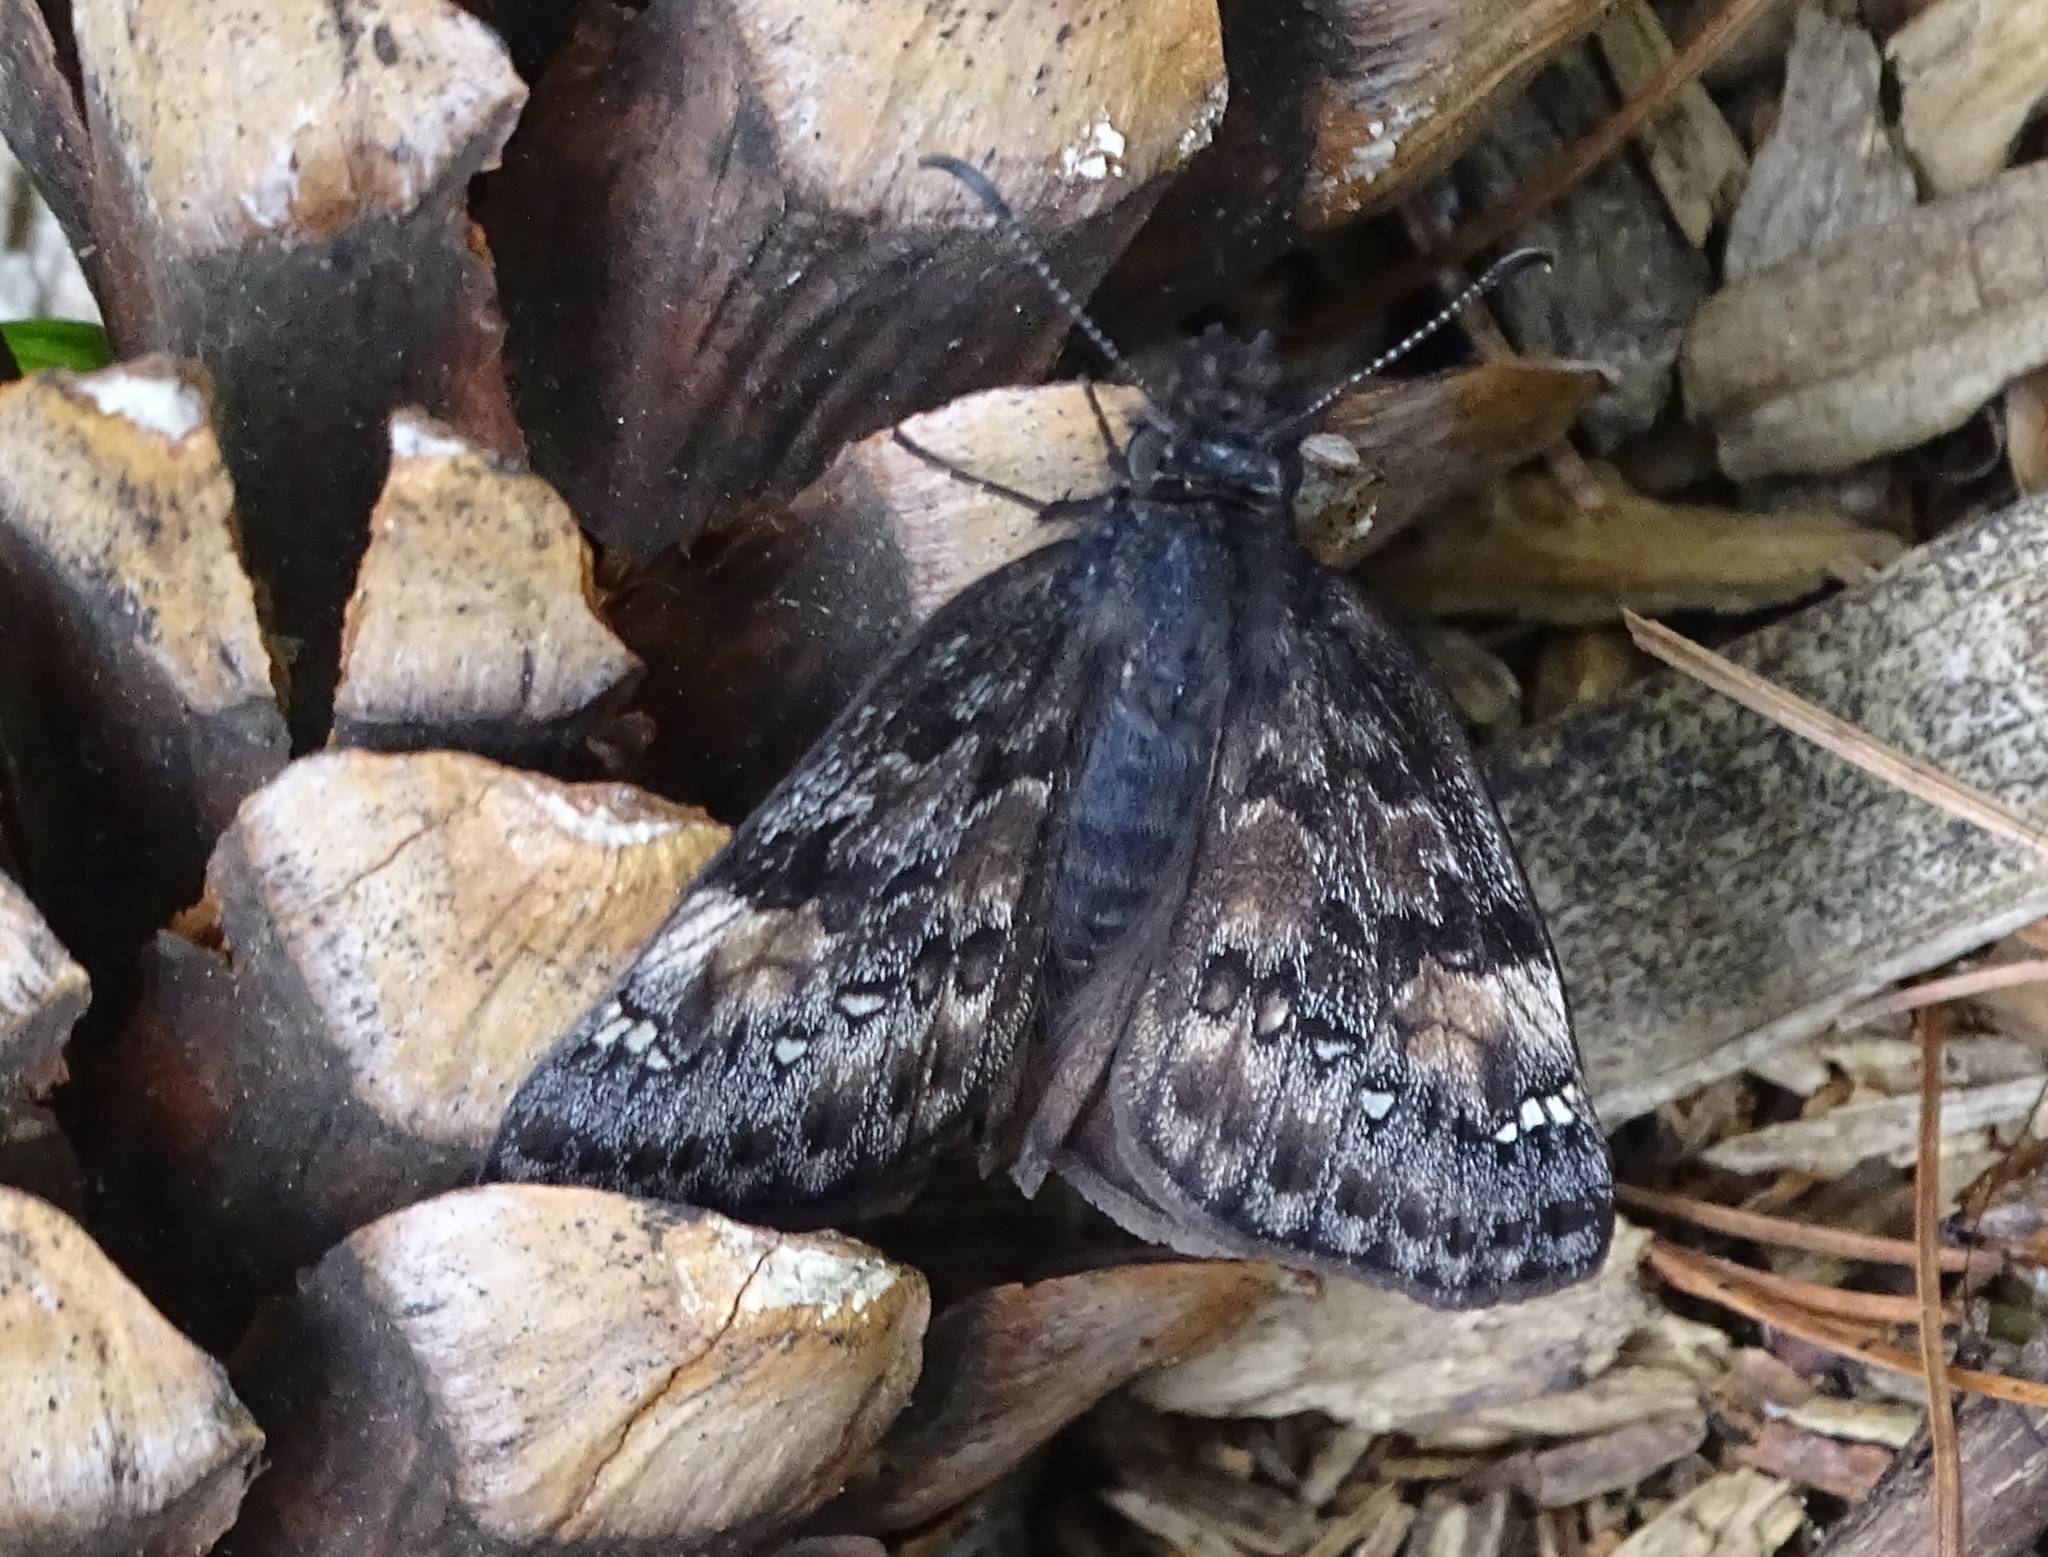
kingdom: Animalia
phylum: Arthropoda
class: Insecta
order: Lepidoptera
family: Hesperiidae
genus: Erynnis
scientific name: Erynnis juvenalis
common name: Juvenal's duskywing
